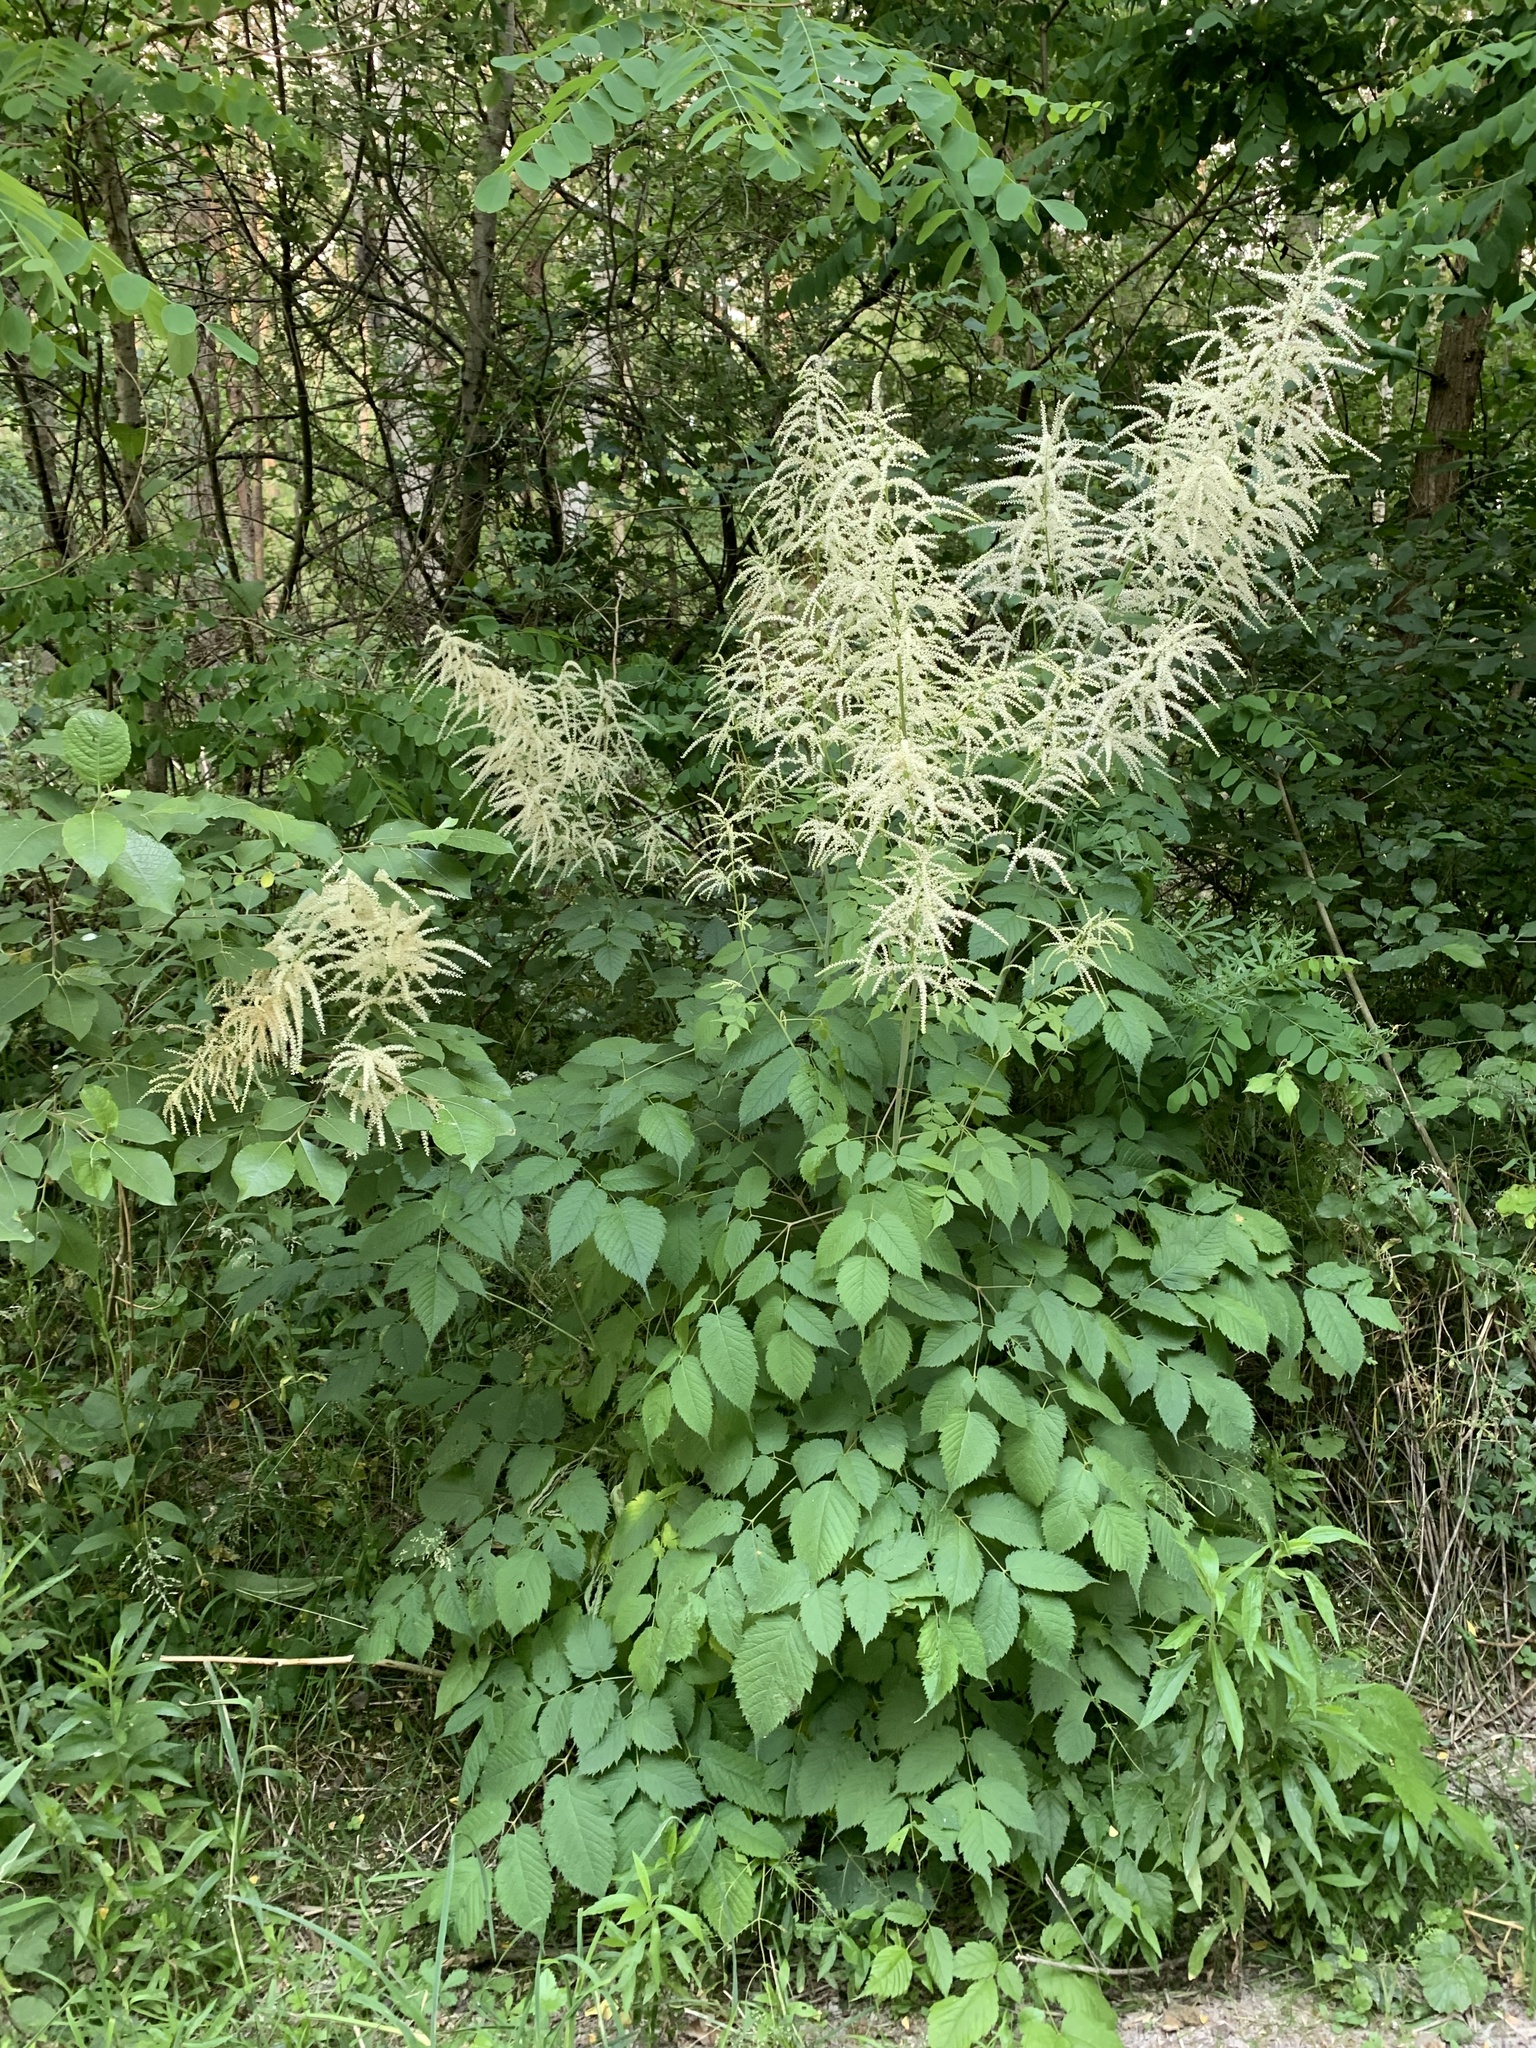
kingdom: Plantae
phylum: Tracheophyta
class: Magnoliopsida
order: Rosales
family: Rosaceae
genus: Aruncus
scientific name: Aruncus dioicus
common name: Buck's-beard
